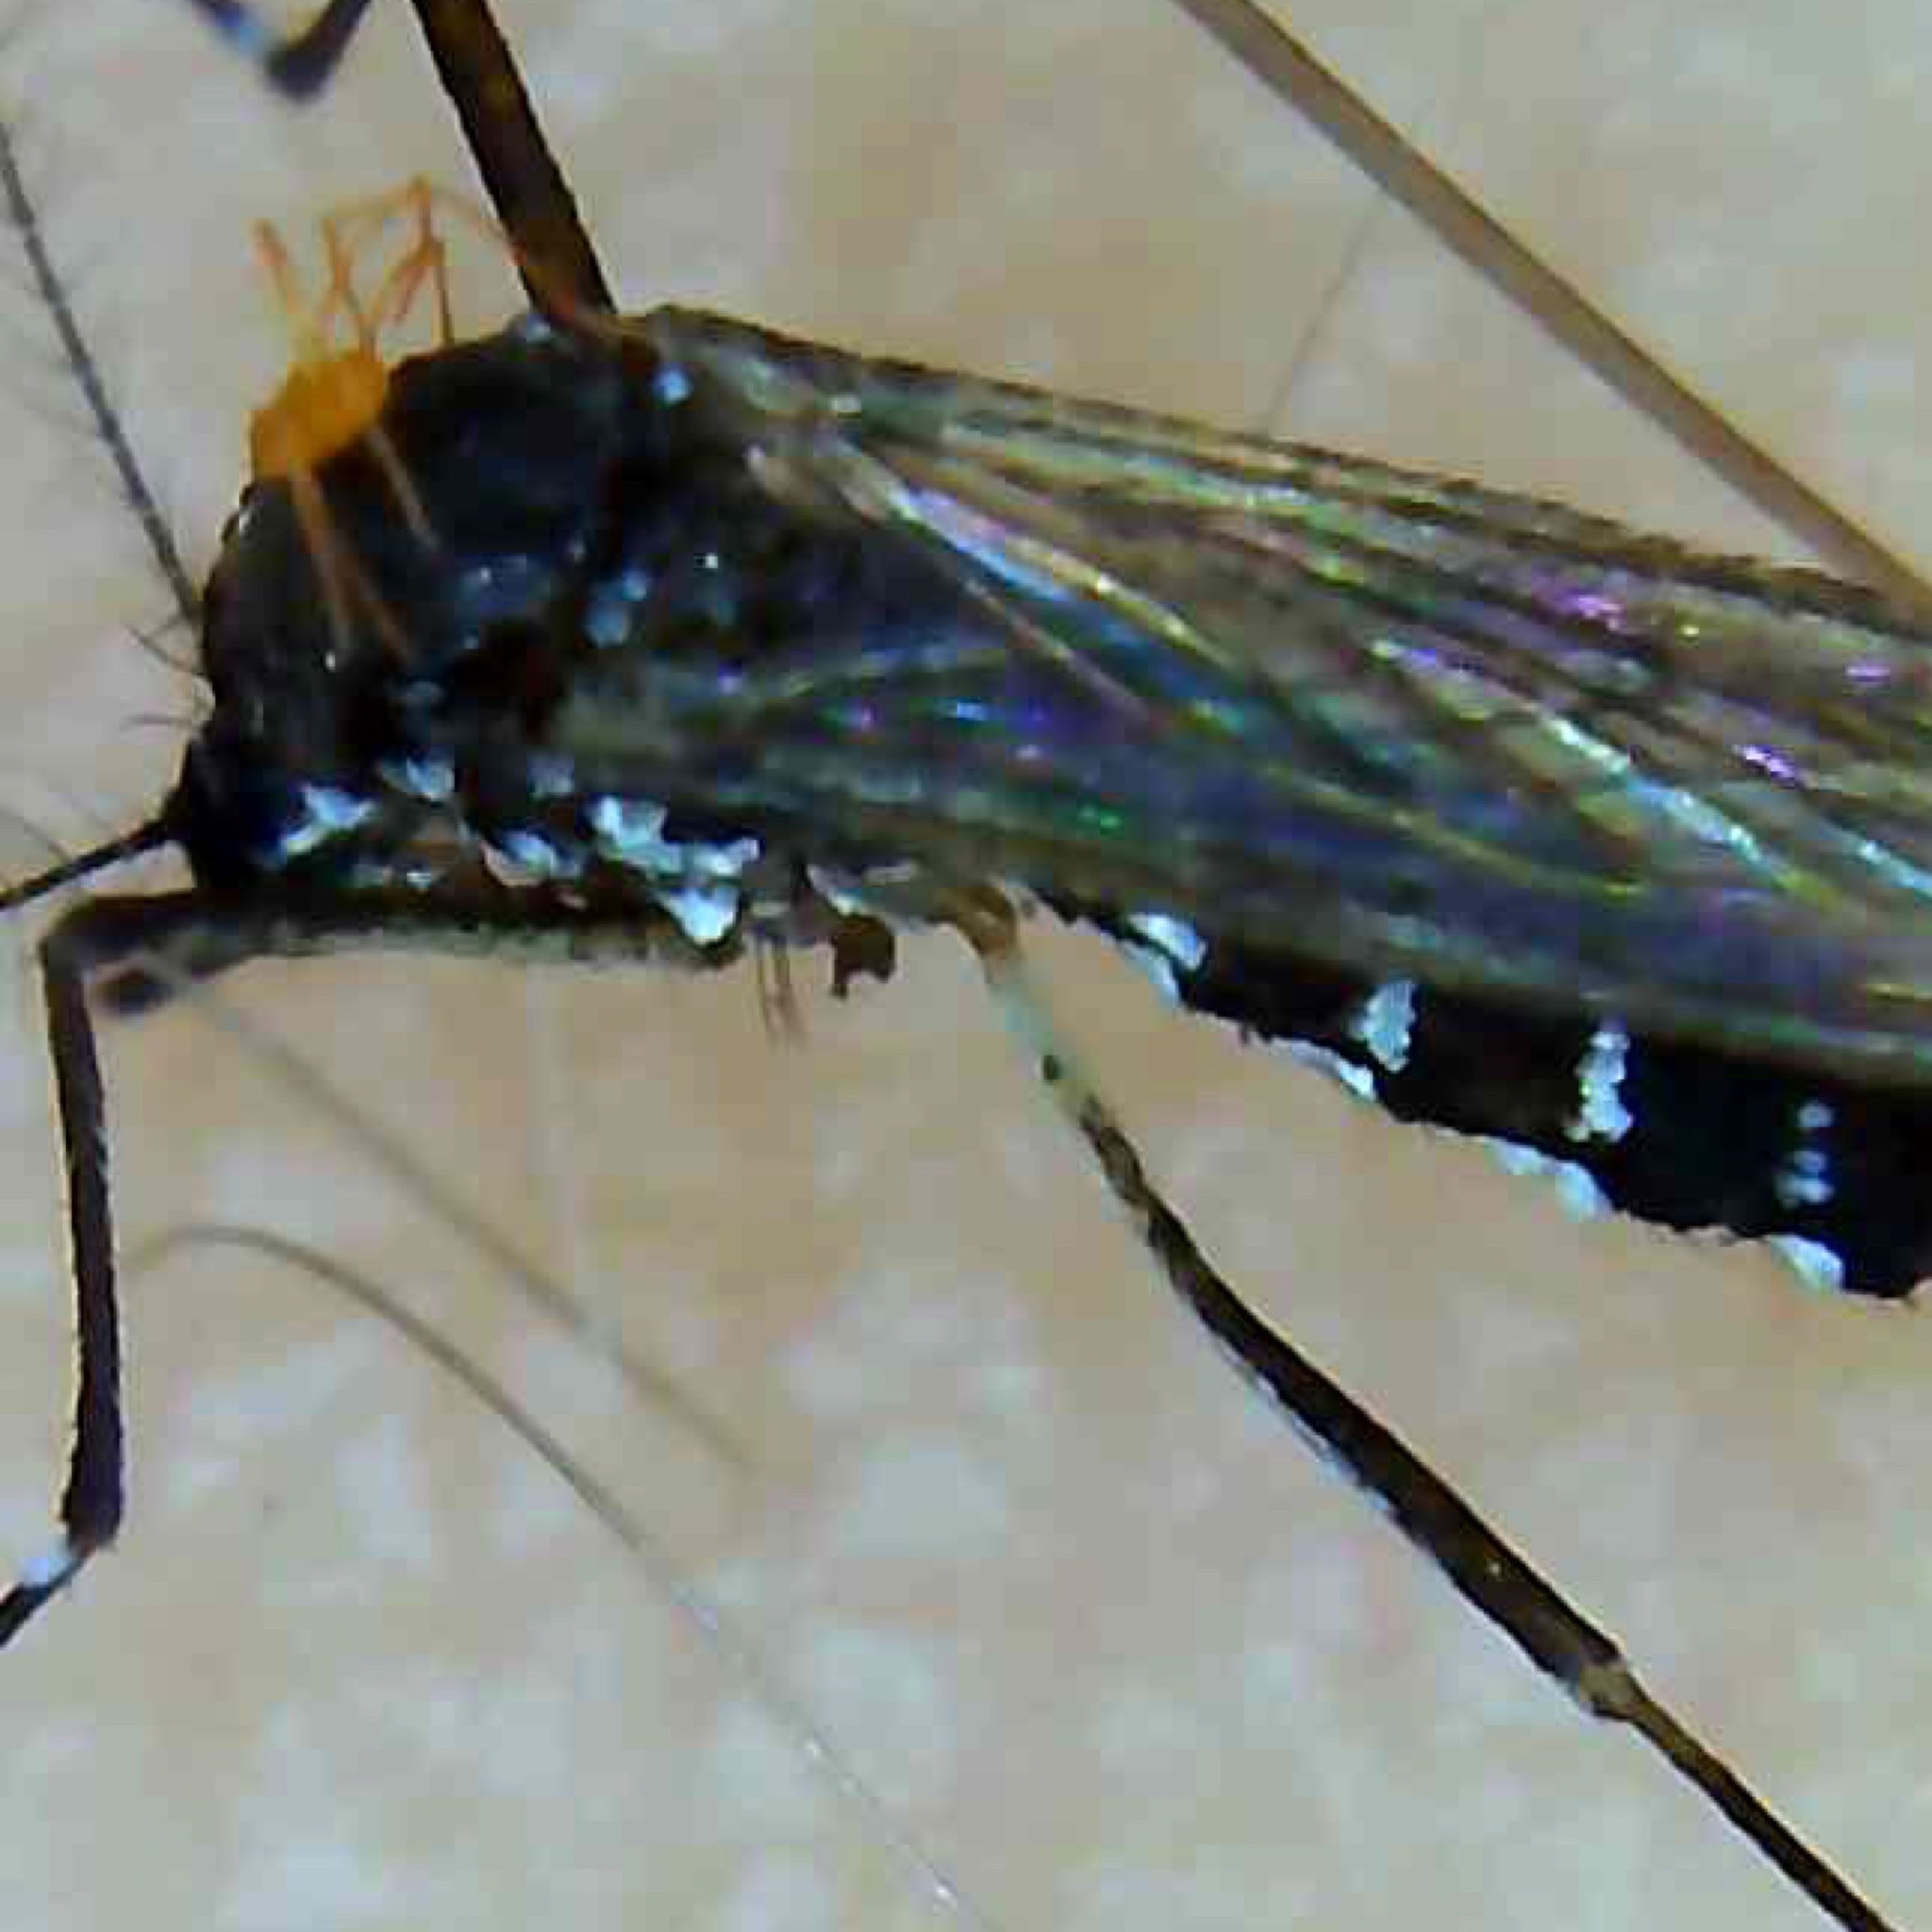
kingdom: Animalia
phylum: Arthropoda
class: Insecta
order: Diptera
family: Culicidae
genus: Aedes
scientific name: Aedes albopictus
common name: Tiger mosquito
